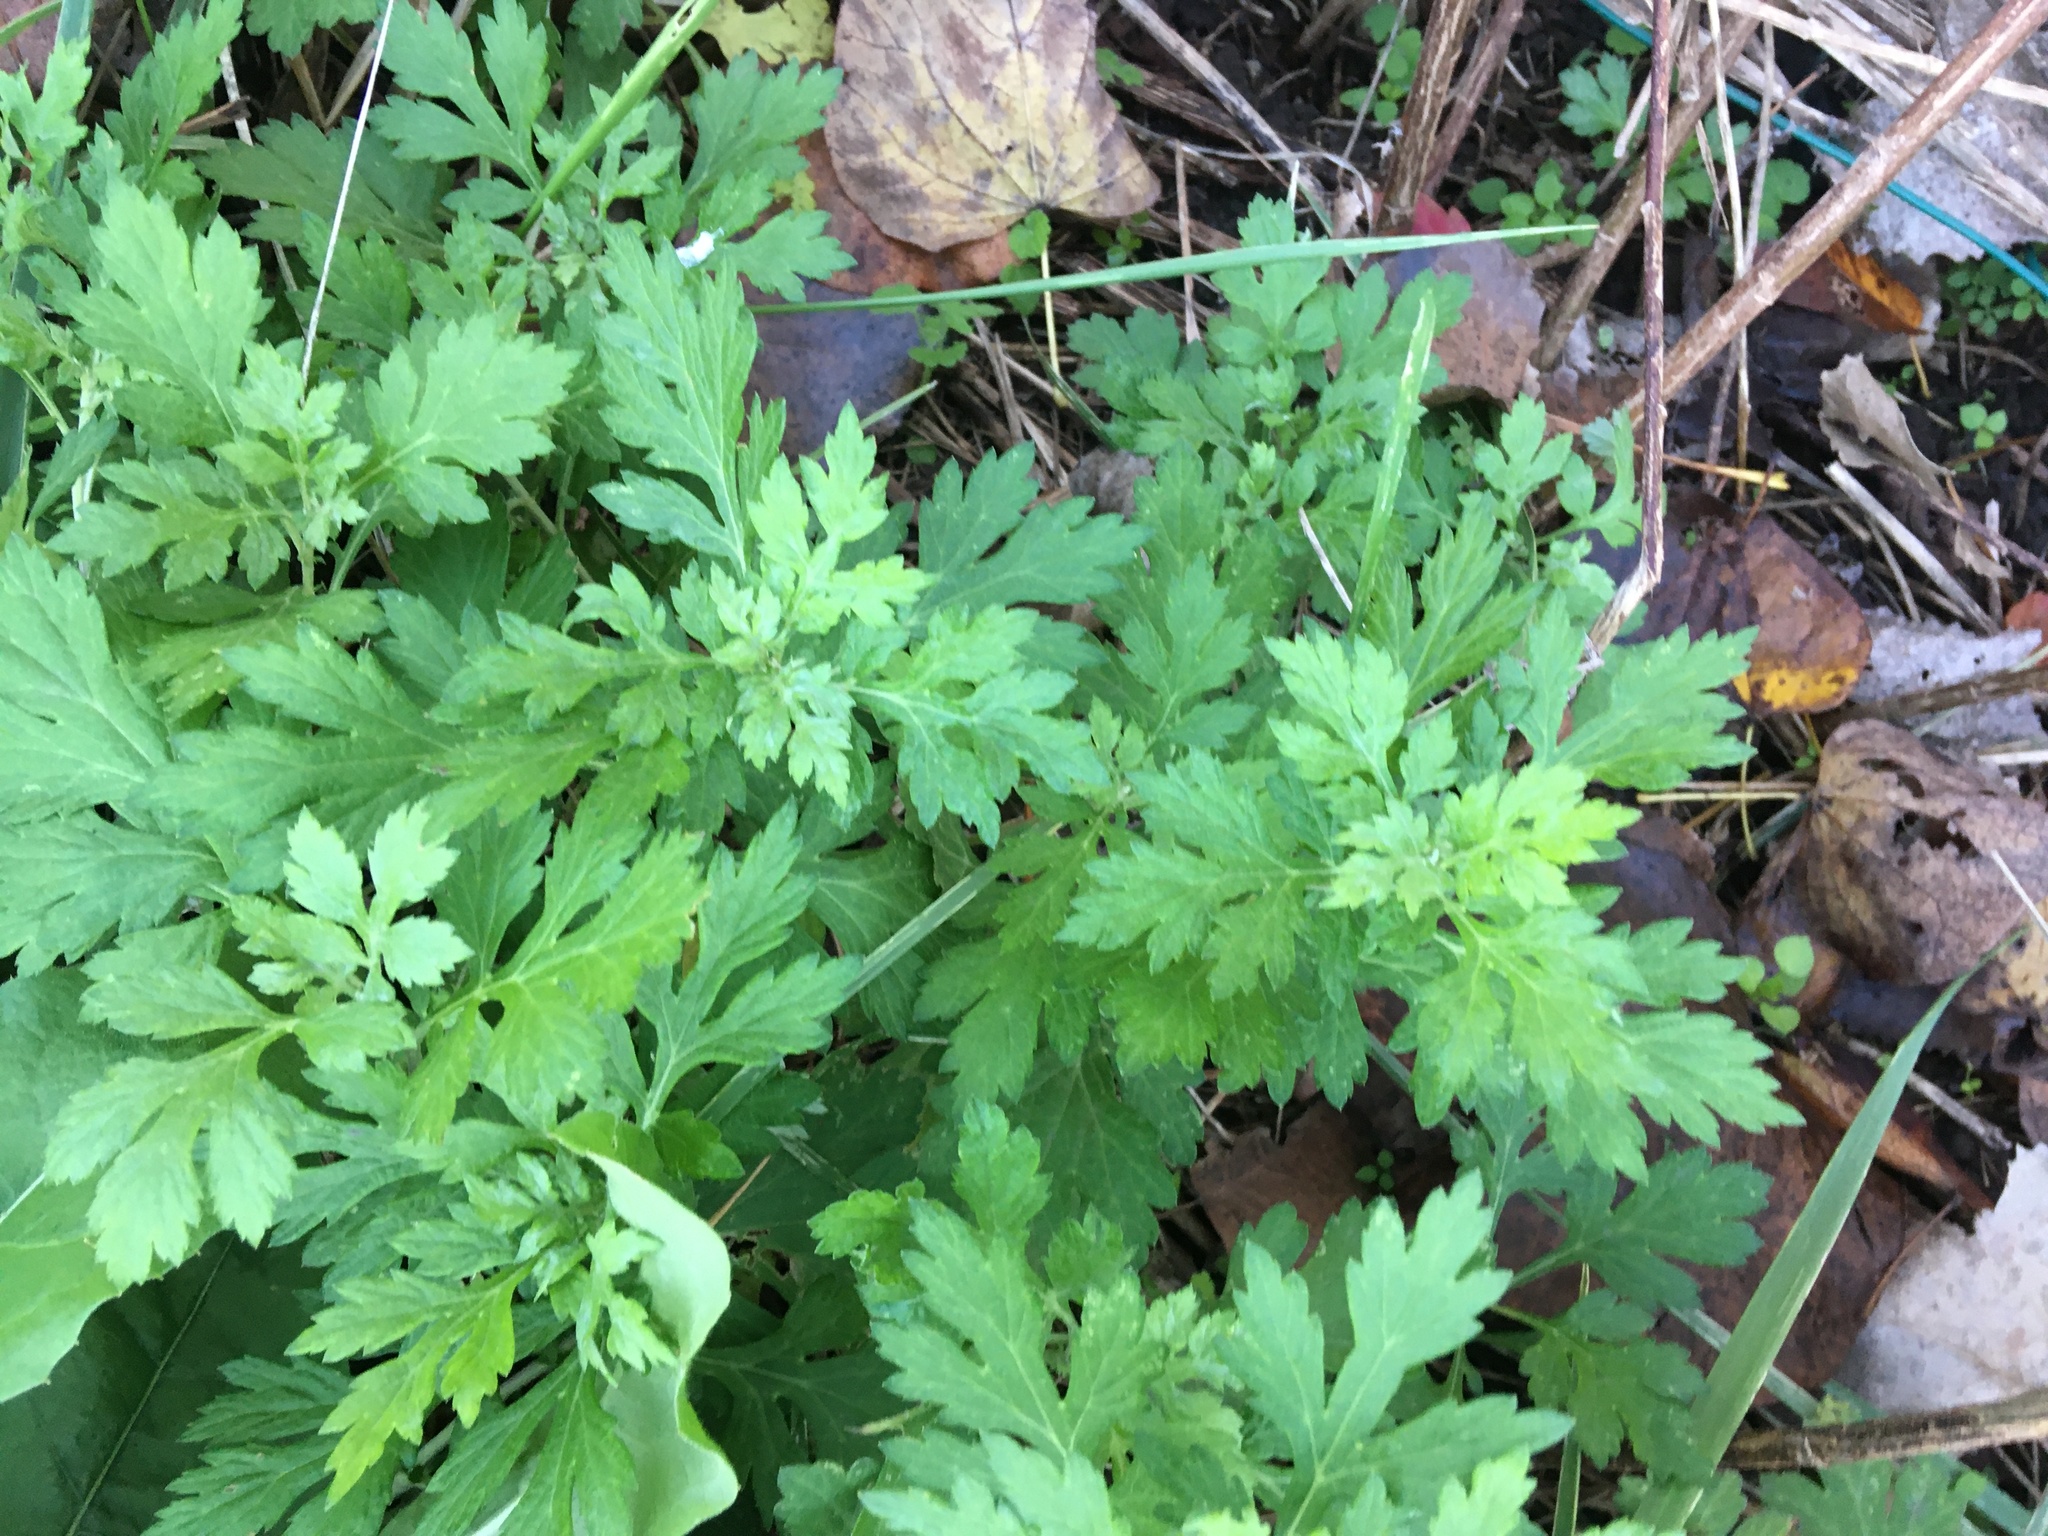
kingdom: Plantae
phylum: Tracheophyta
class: Magnoliopsida
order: Asterales
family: Asteraceae
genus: Artemisia
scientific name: Artemisia vulgaris
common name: Mugwort
